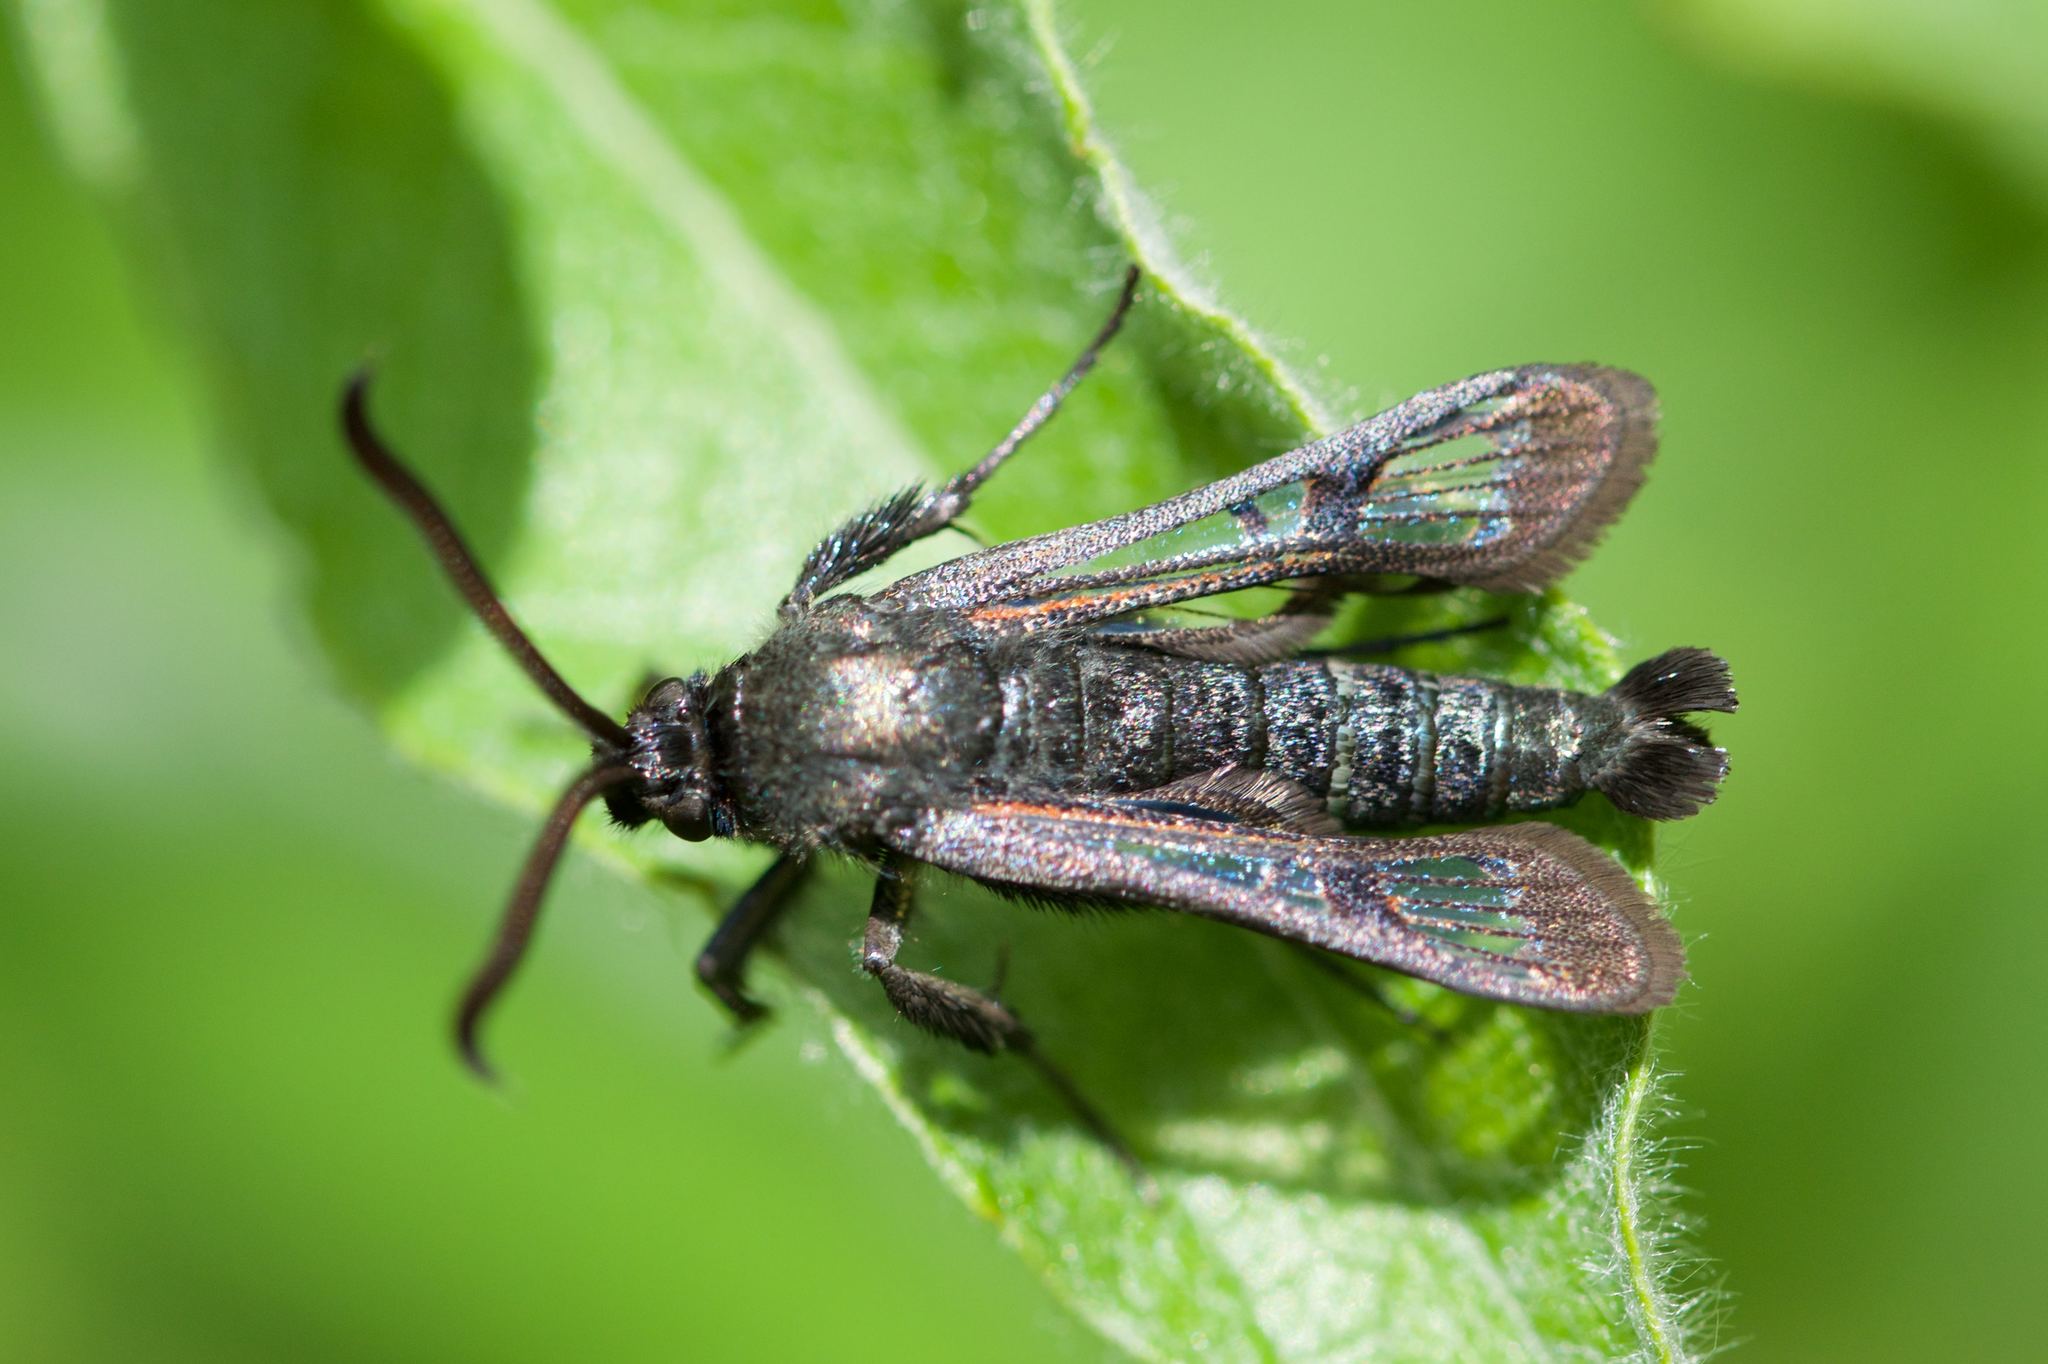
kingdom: Animalia
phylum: Arthropoda
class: Insecta
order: Lepidoptera
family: Sesiidae
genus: Albuna
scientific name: Albuna pyramidalis
